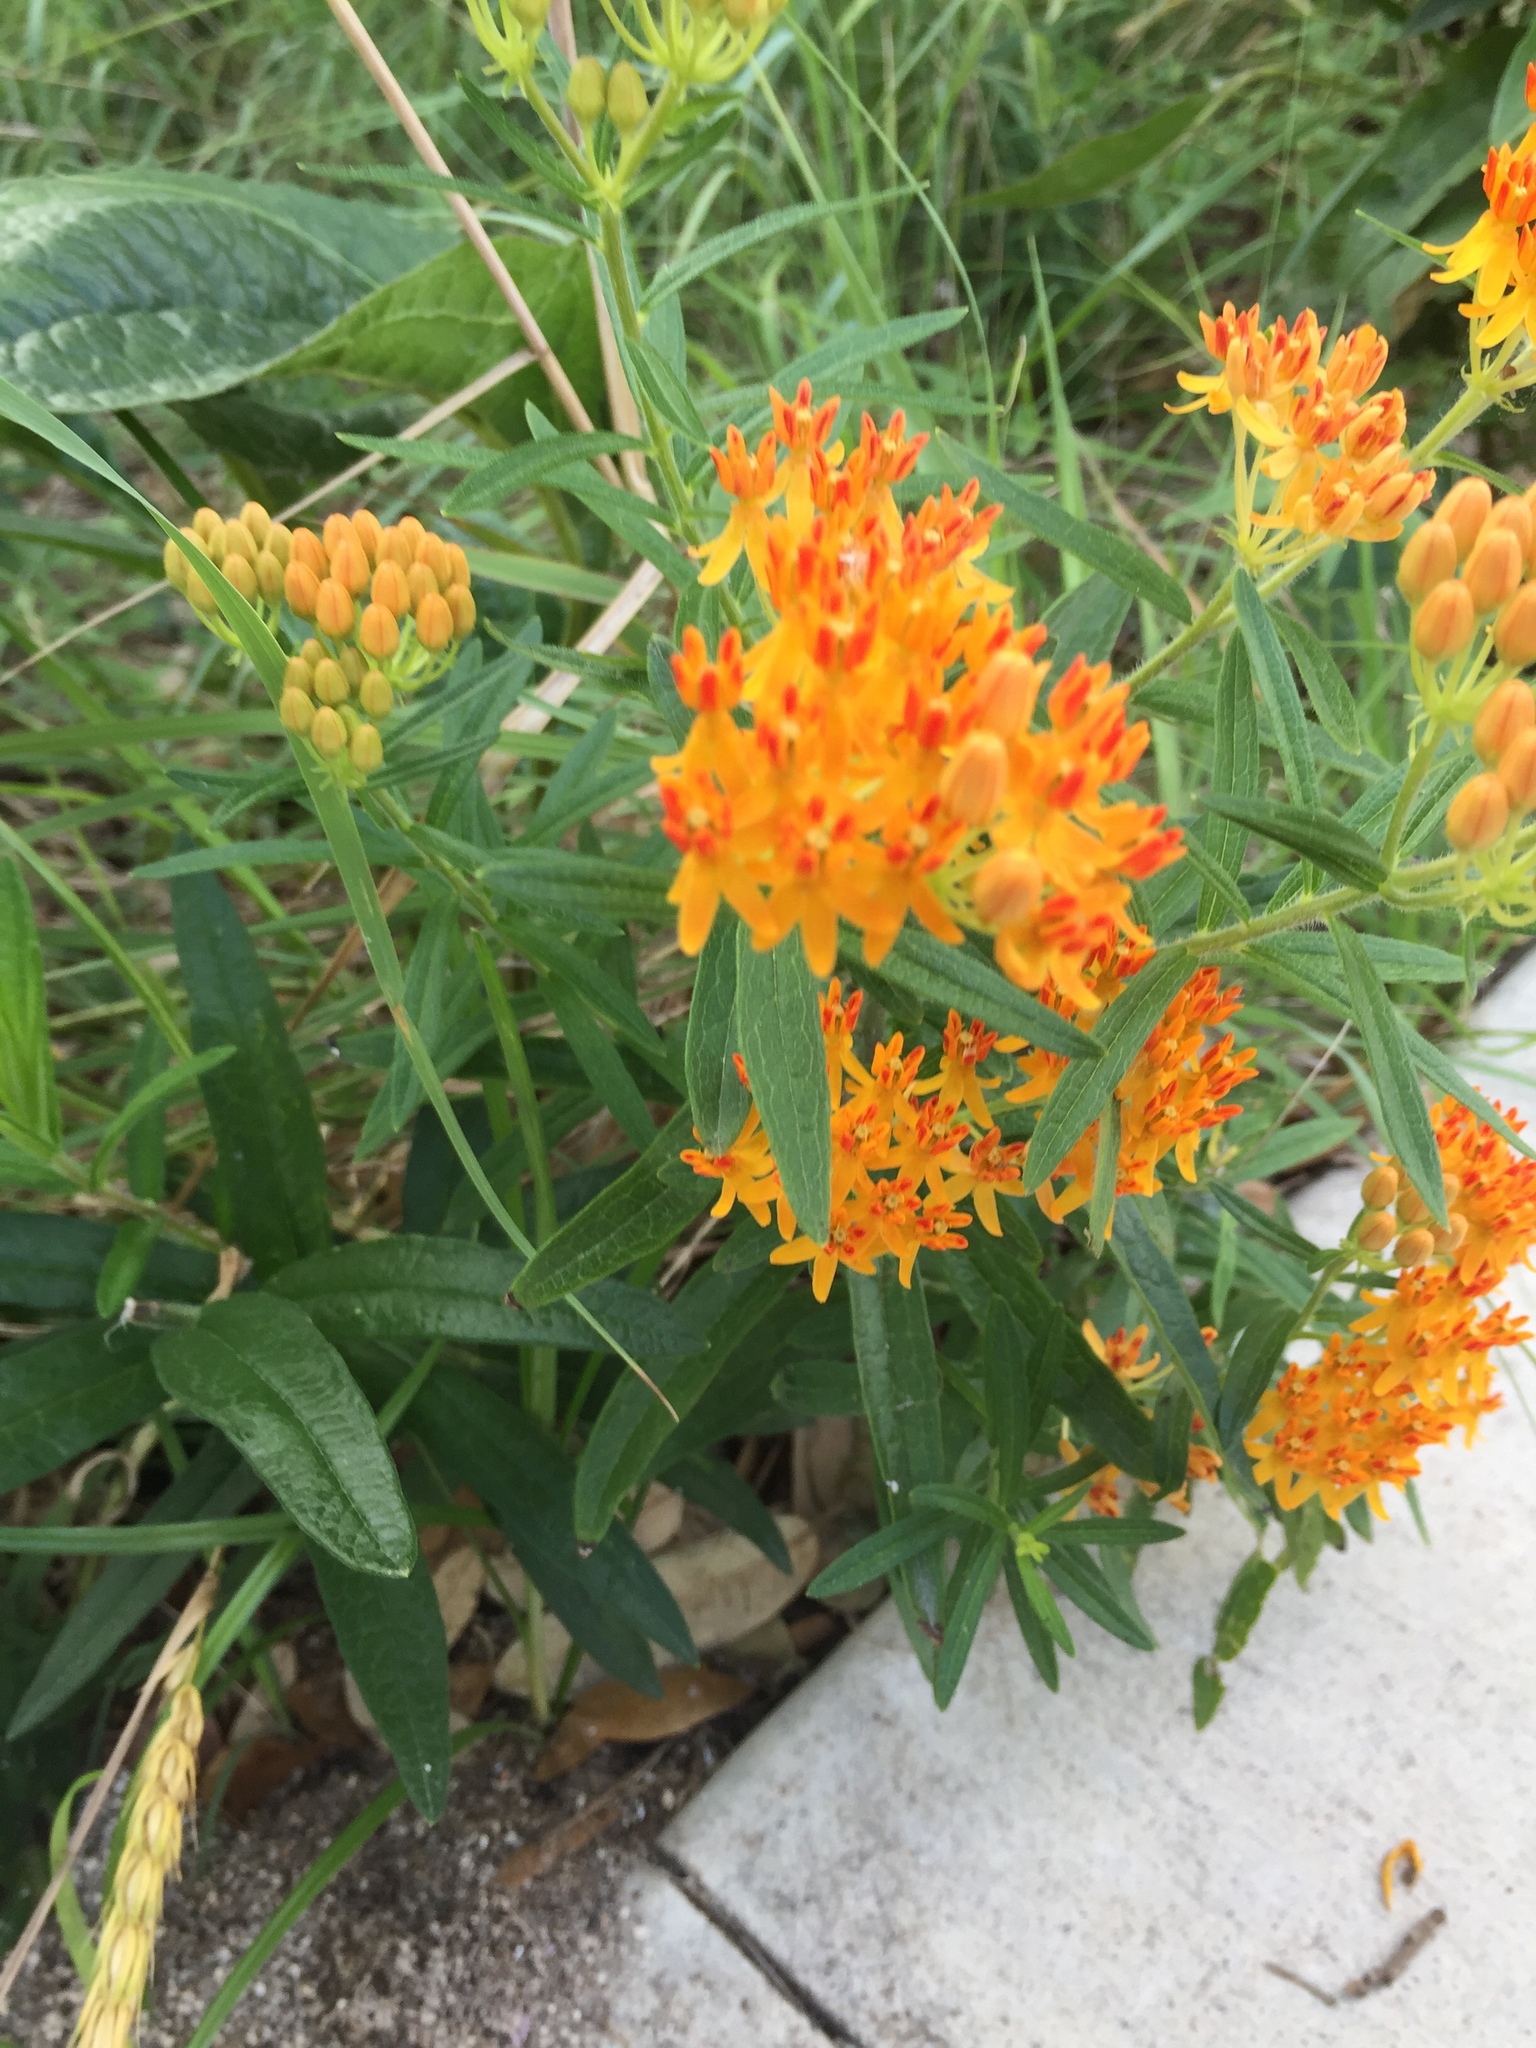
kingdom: Plantae
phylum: Tracheophyta
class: Magnoliopsida
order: Gentianales
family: Apocynaceae
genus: Asclepias
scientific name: Asclepias tuberosa
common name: Butterfly milkweed
